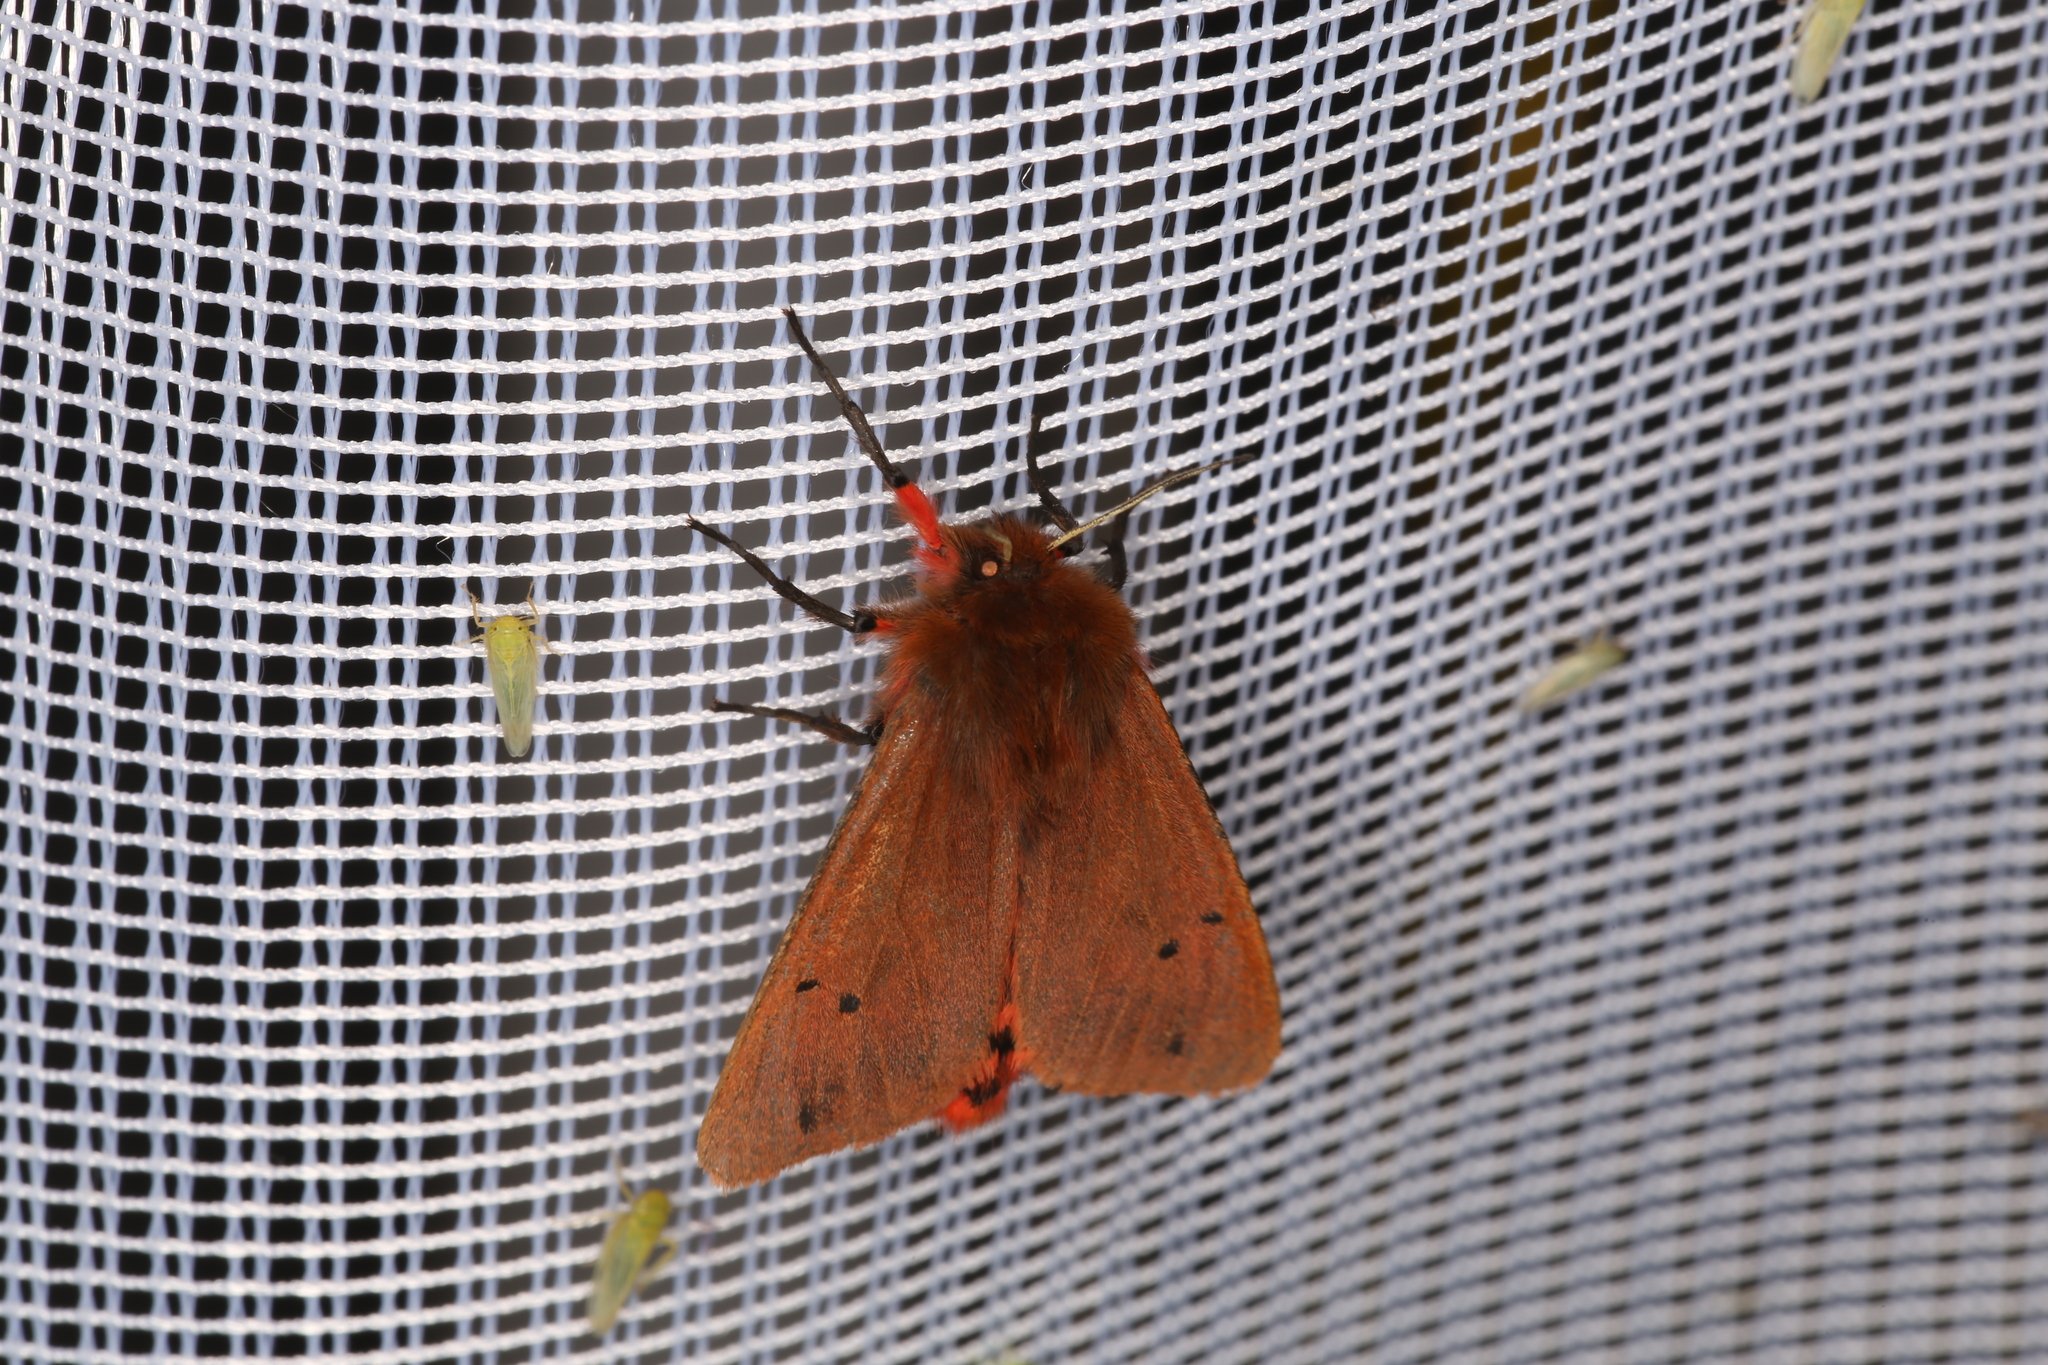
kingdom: Animalia
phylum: Arthropoda
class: Insecta
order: Lepidoptera
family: Erebidae
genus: Phragmatobia
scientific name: Phragmatobia fuliginosa
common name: Ruby tiger
